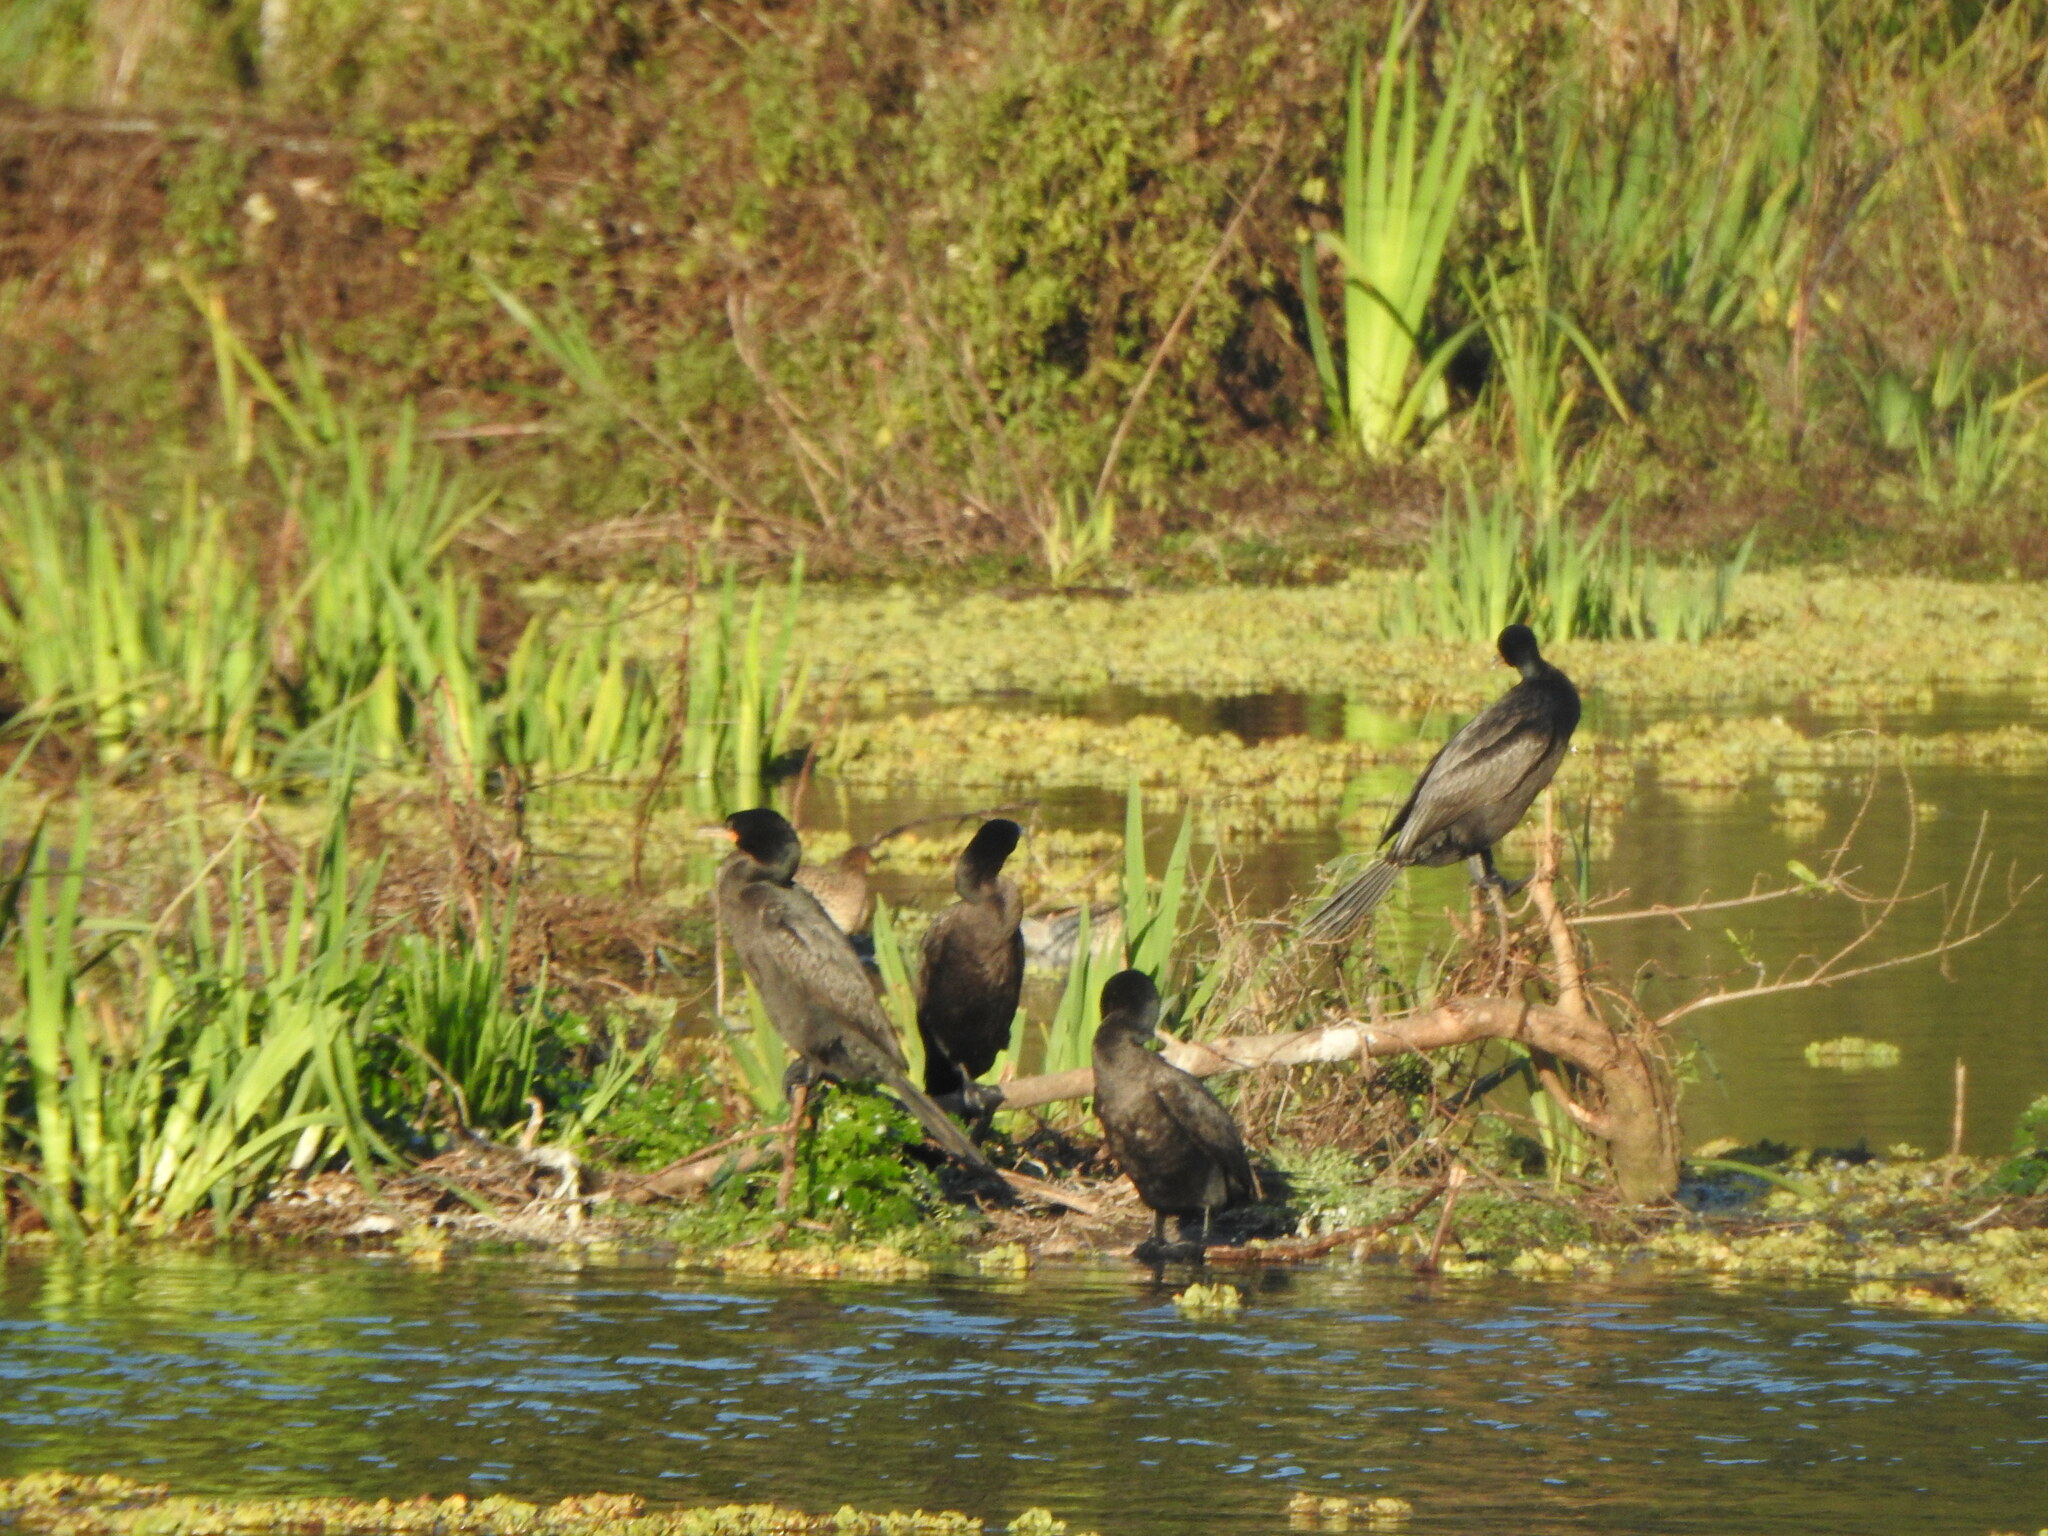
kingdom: Animalia
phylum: Chordata
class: Aves
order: Suliformes
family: Phalacrocoracidae
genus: Phalacrocorax
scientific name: Phalacrocorax brasilianus
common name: Neotropic cormorant
